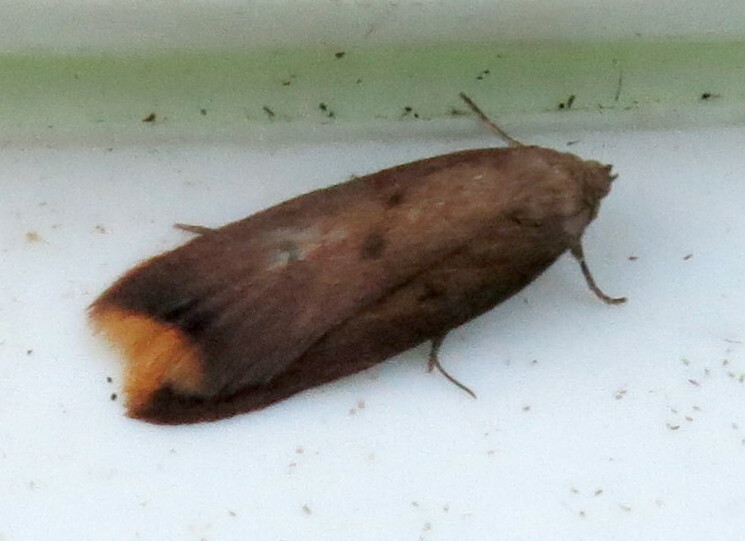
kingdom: Animalia
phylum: Arthropoda
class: Insecta
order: Lepidoptera
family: Oecophoridae
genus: Tachystola
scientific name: Tachystola acroxantha
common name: Ruddy streak
